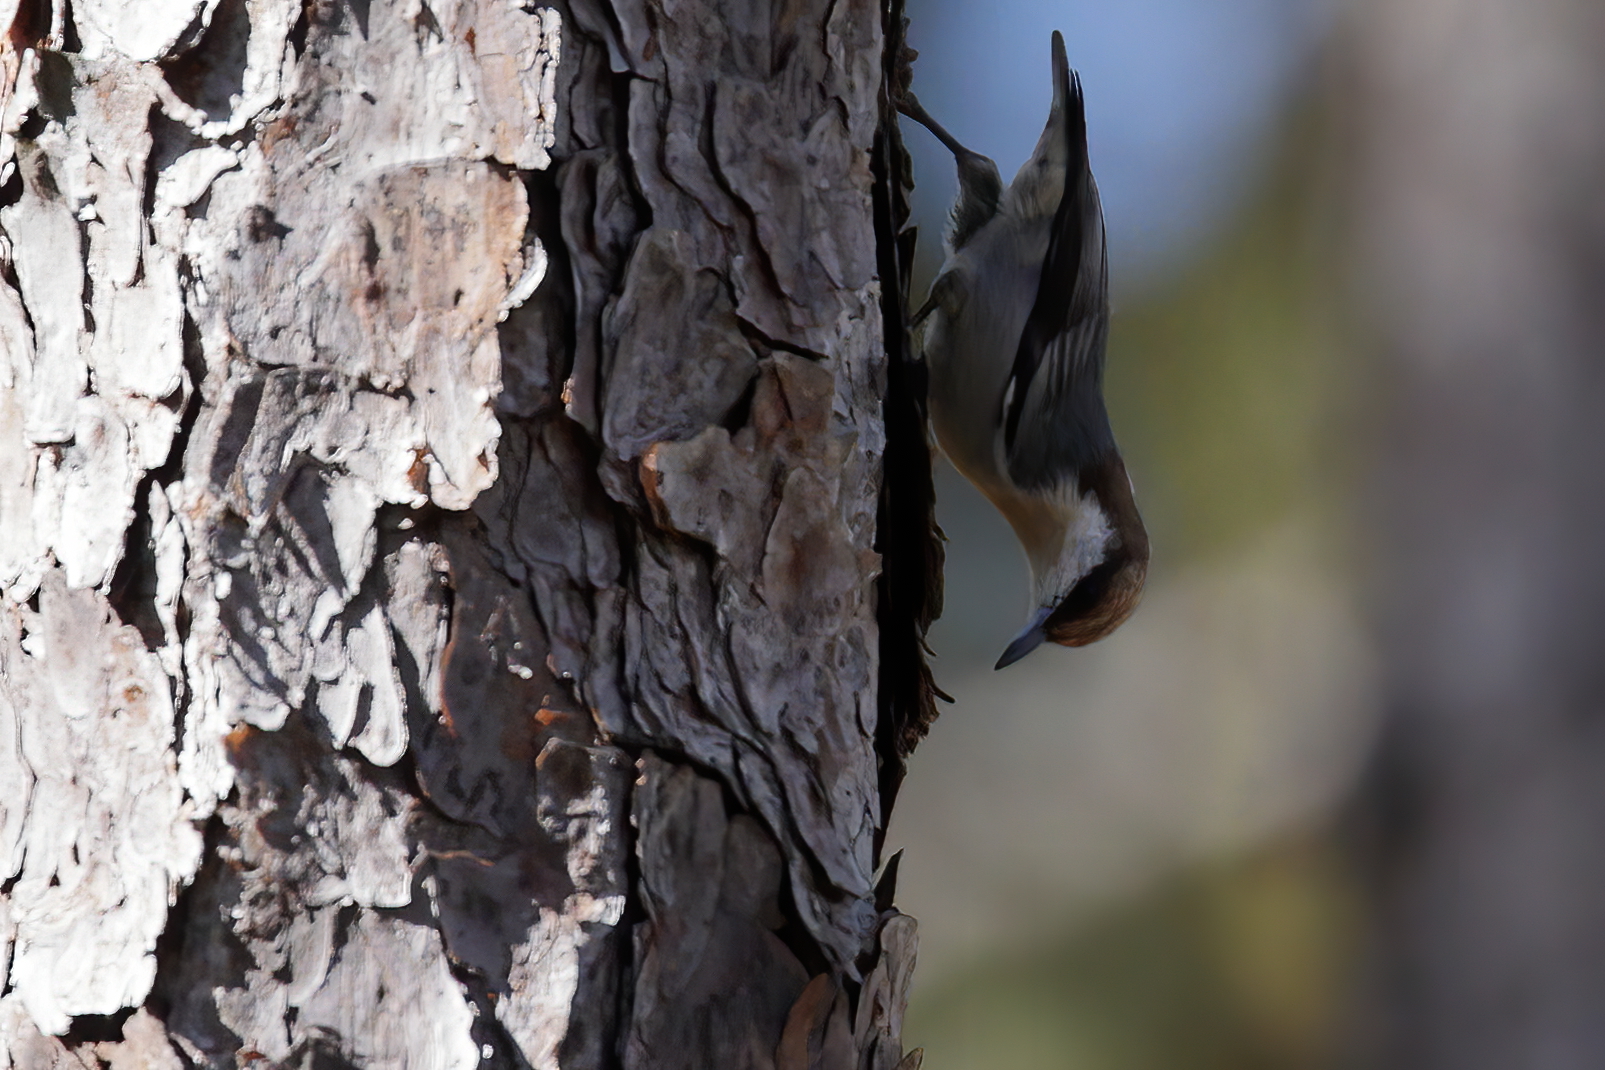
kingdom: Animalia
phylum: Chordata
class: Aves
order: Passeriformes
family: Sittidae
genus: Sitta
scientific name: Sitta pusilla
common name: Brown-headed nuthatch
